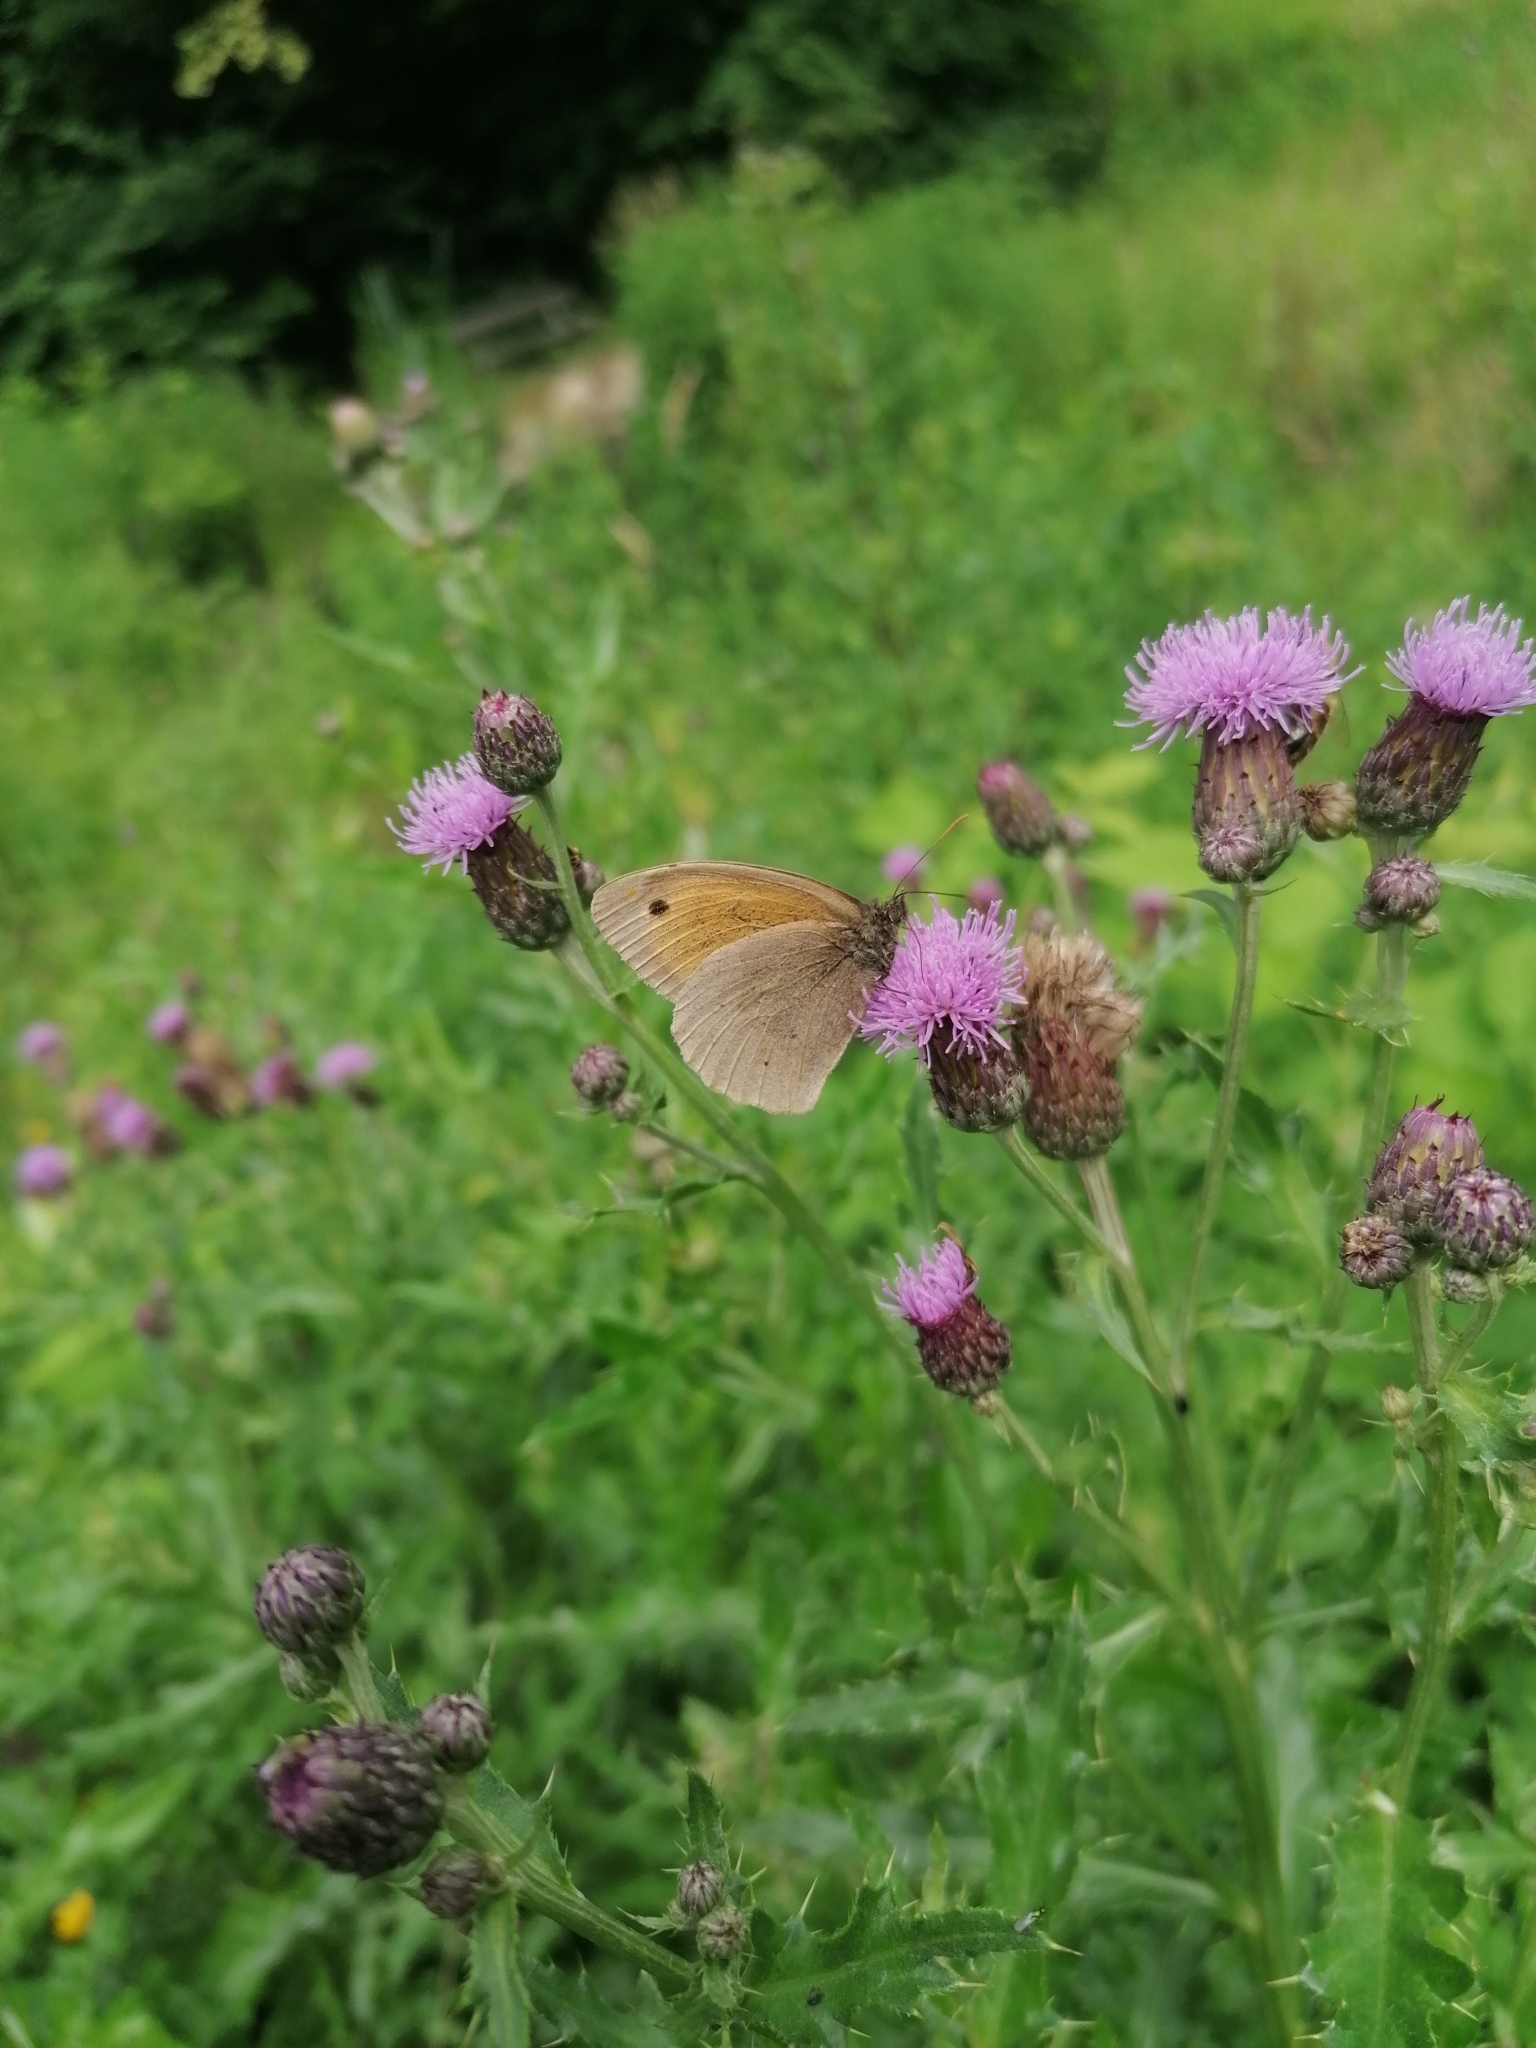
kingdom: Animalia
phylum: Arthropoda
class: Insecta
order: Lepidoptera
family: Nymphalidae
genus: Maniola
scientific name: Maniola jurtina
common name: Meadow brown
